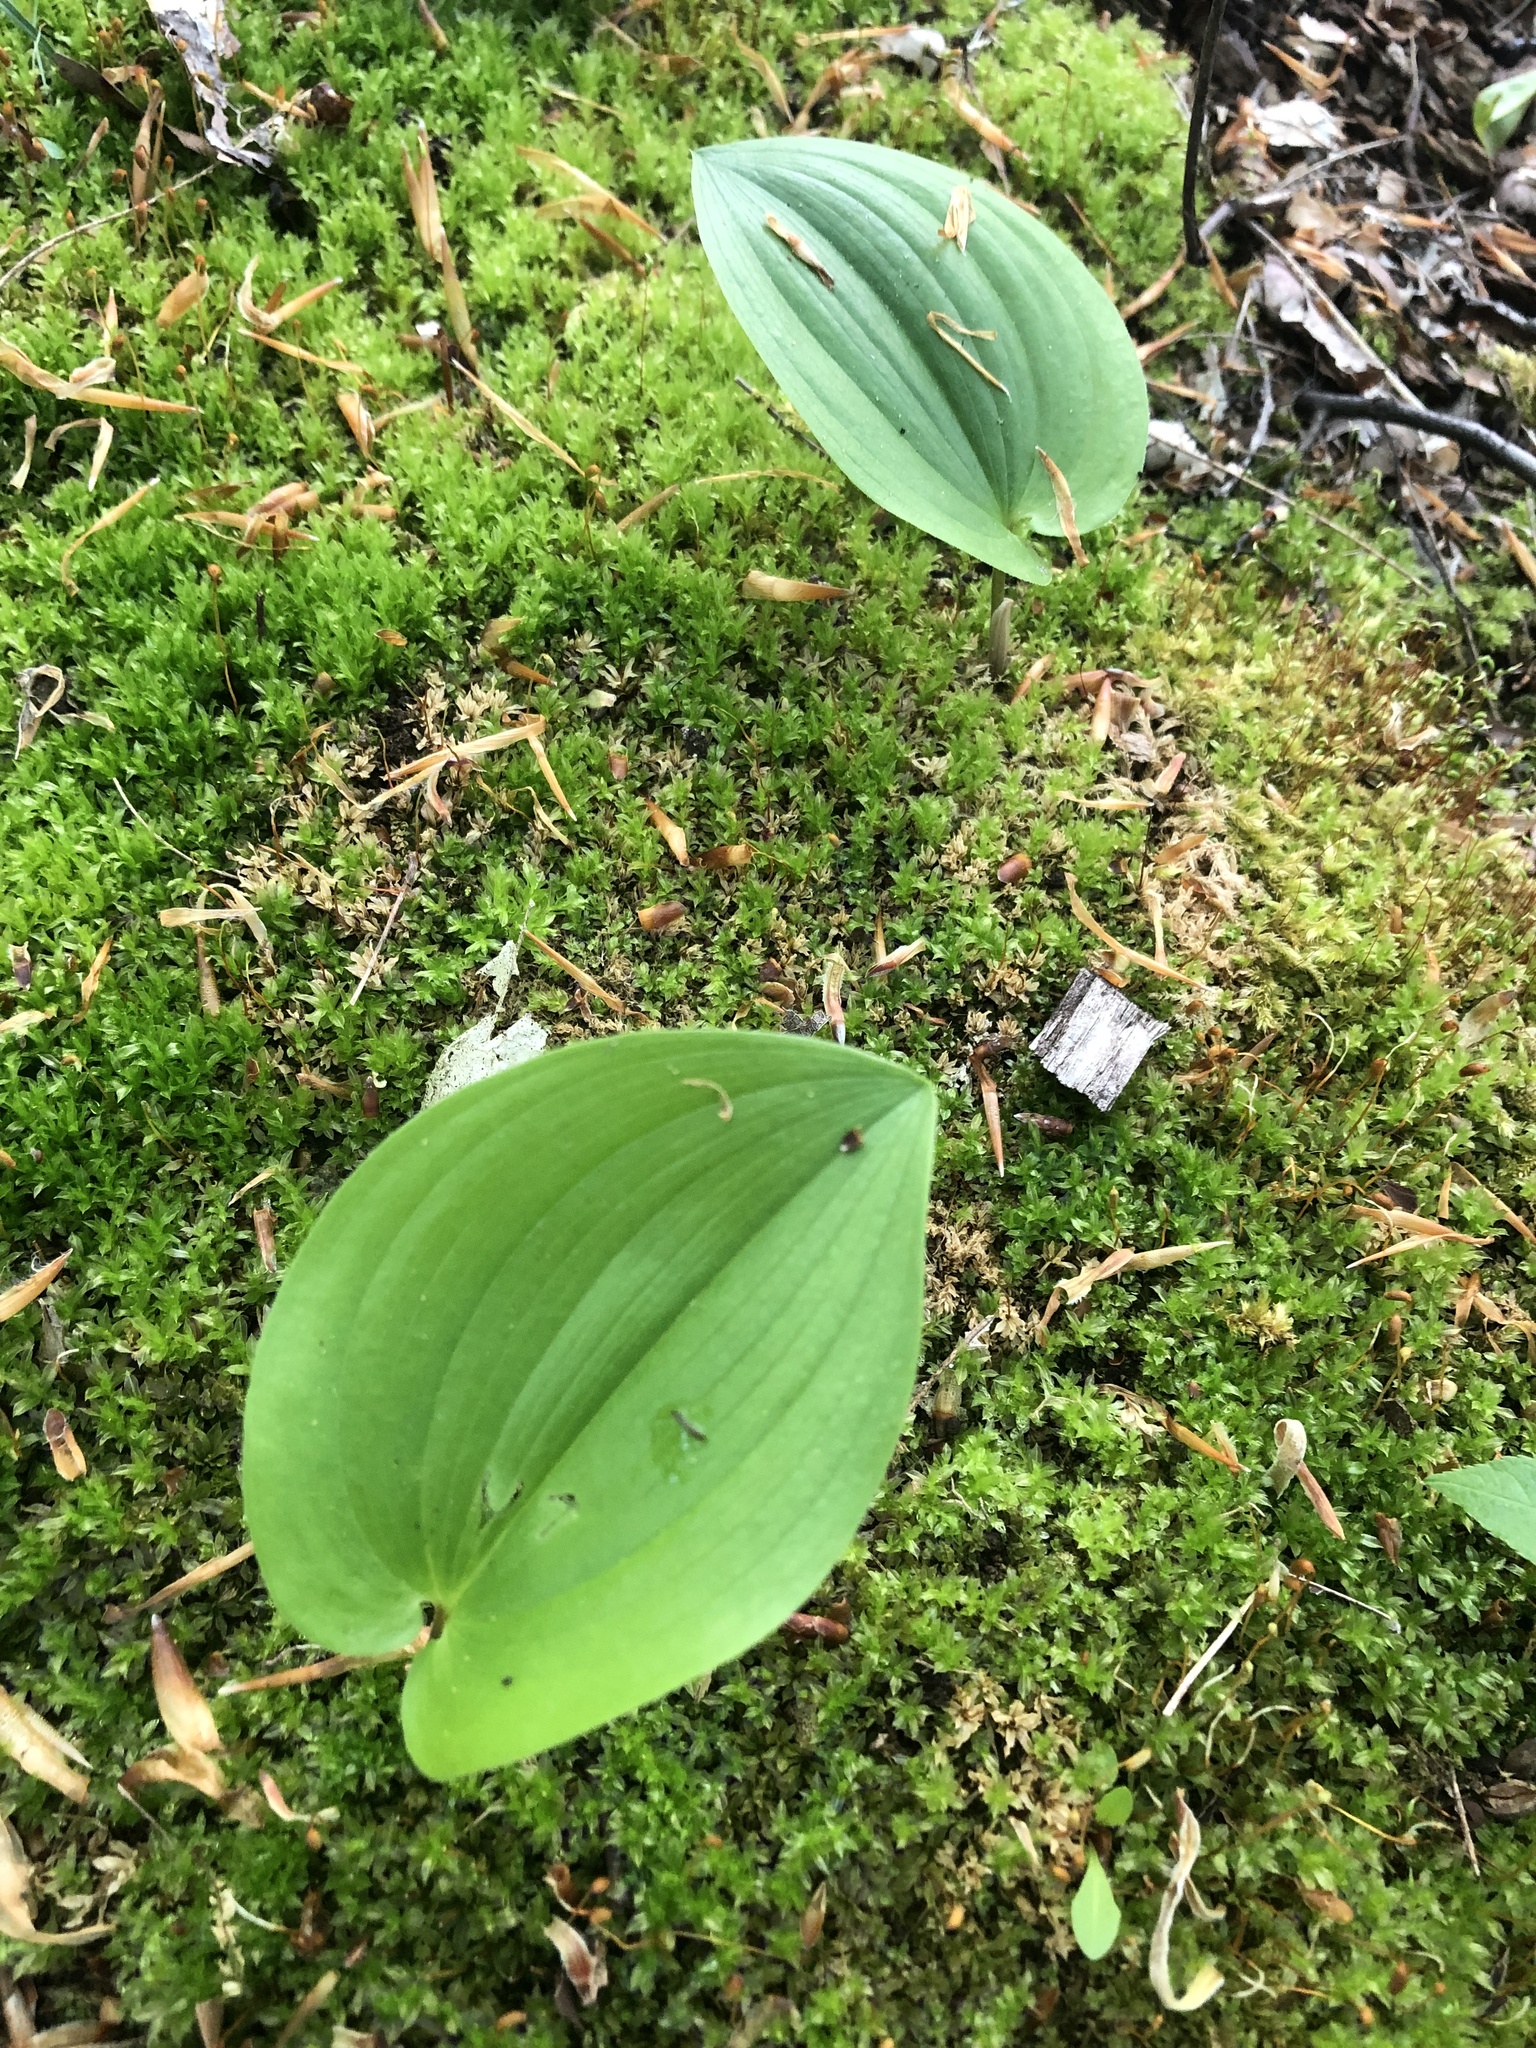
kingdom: Plantae
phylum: Tracheophyta
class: Liliopsida
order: Asparagales
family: Asparagaceae
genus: Maianthemum
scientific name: Maianthemum canadense
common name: False lily-of-the-valley
